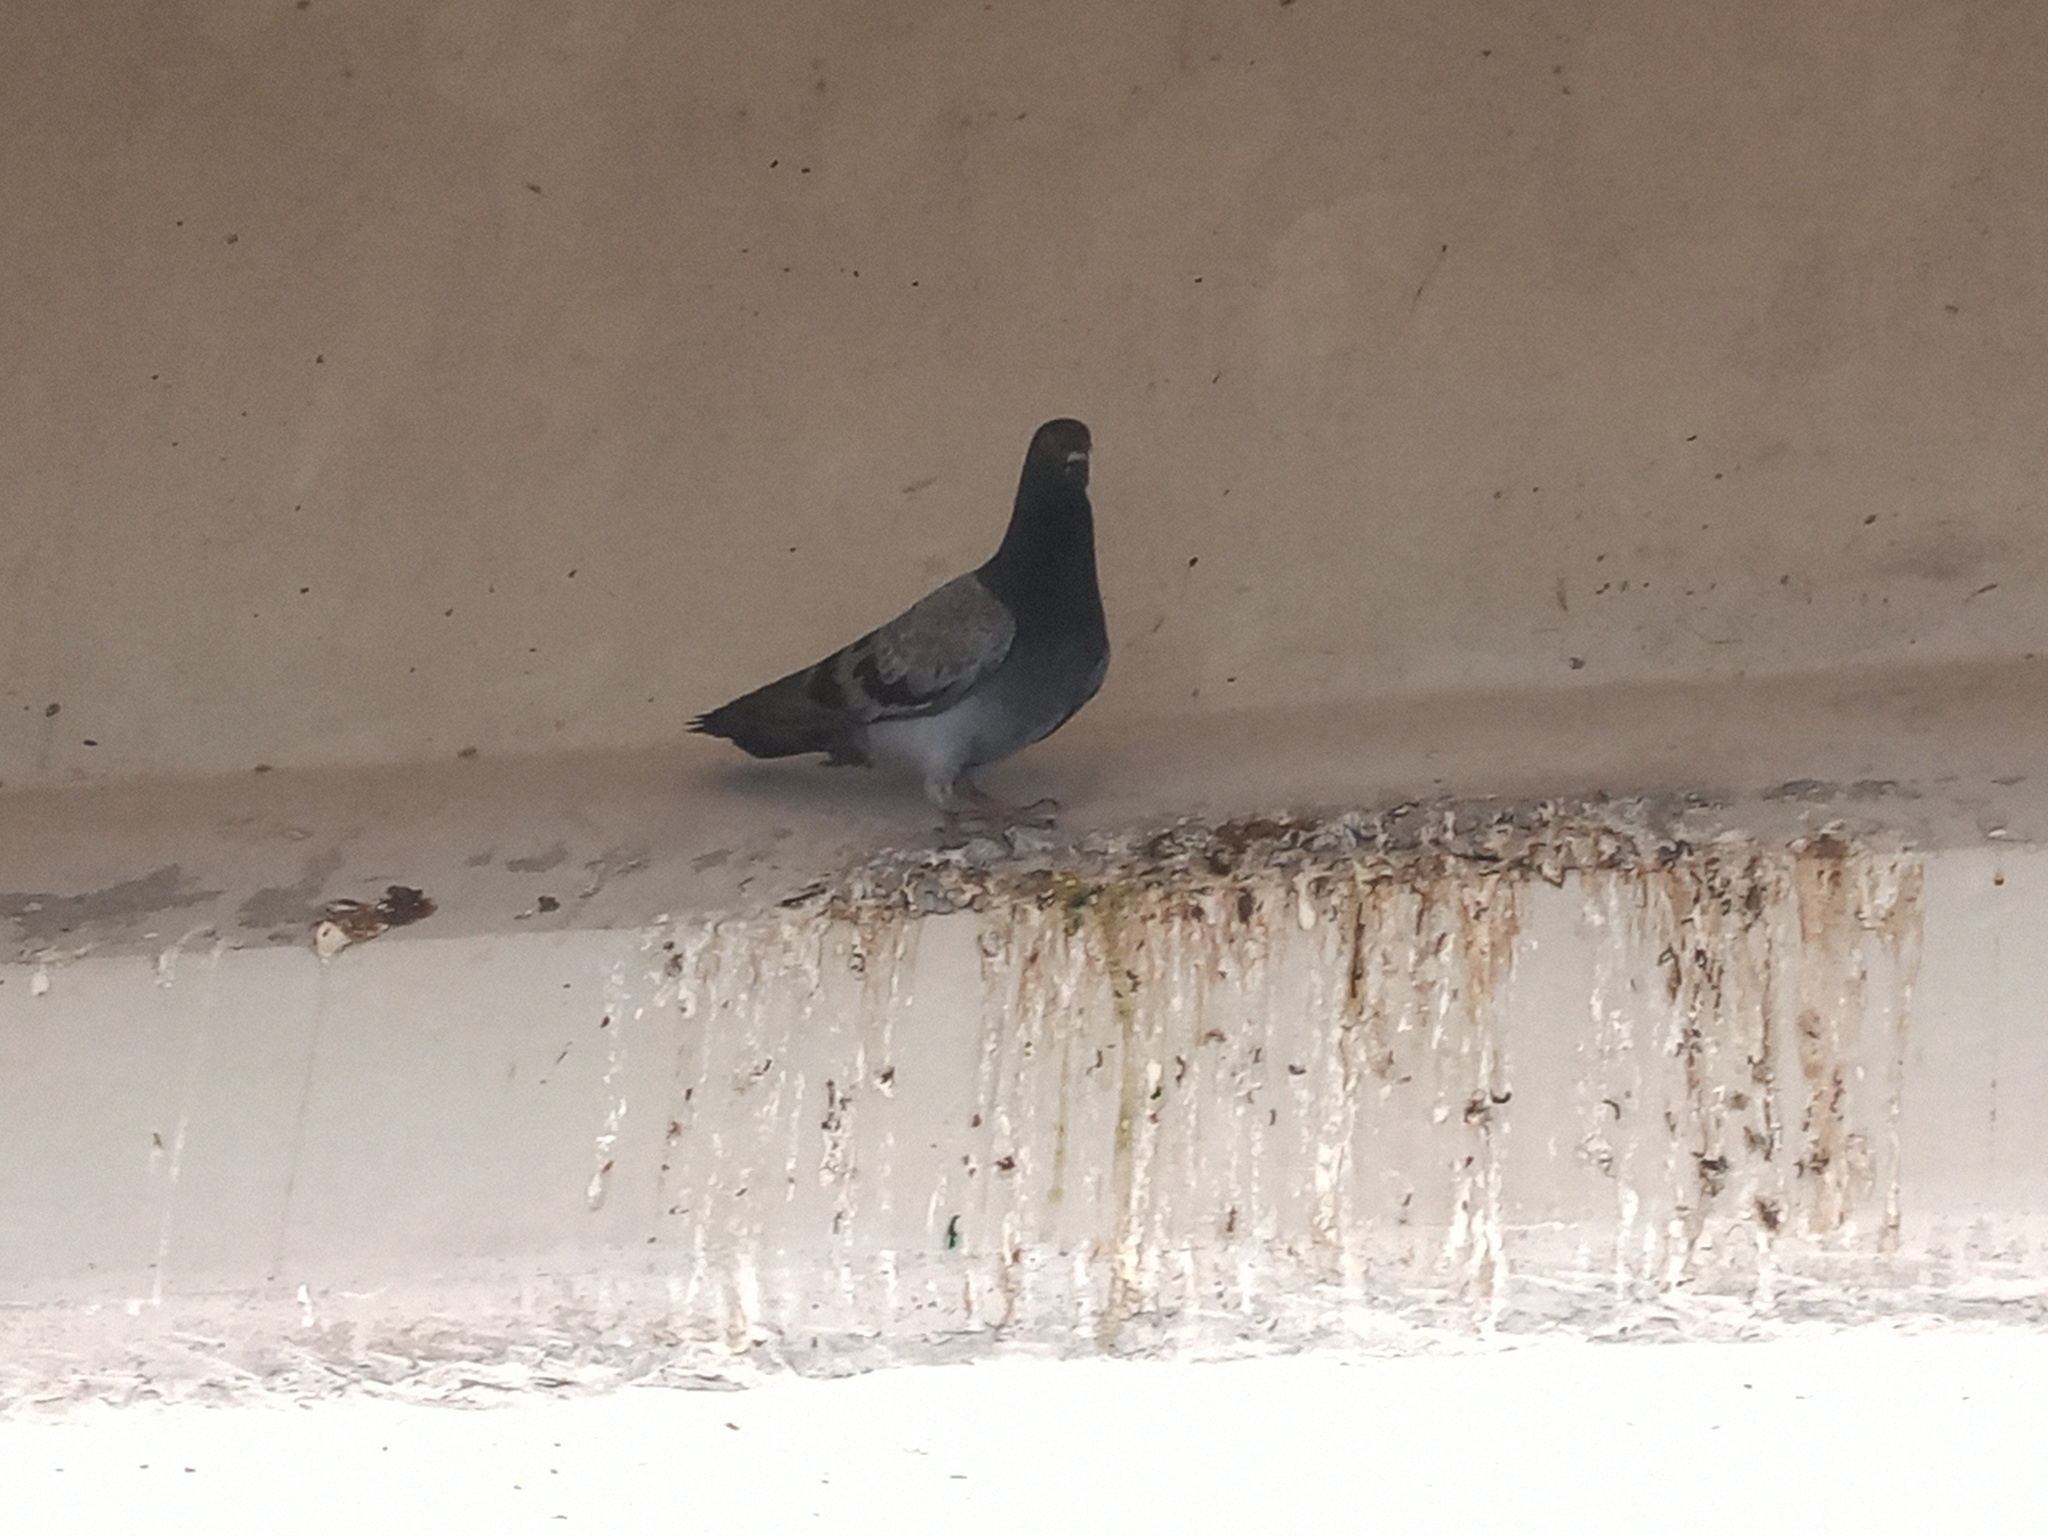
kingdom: Animalia
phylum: Chordata
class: Aves
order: Columbiformes
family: Columbidae
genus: Columba
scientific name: Columba livia
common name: Rock pigeon
